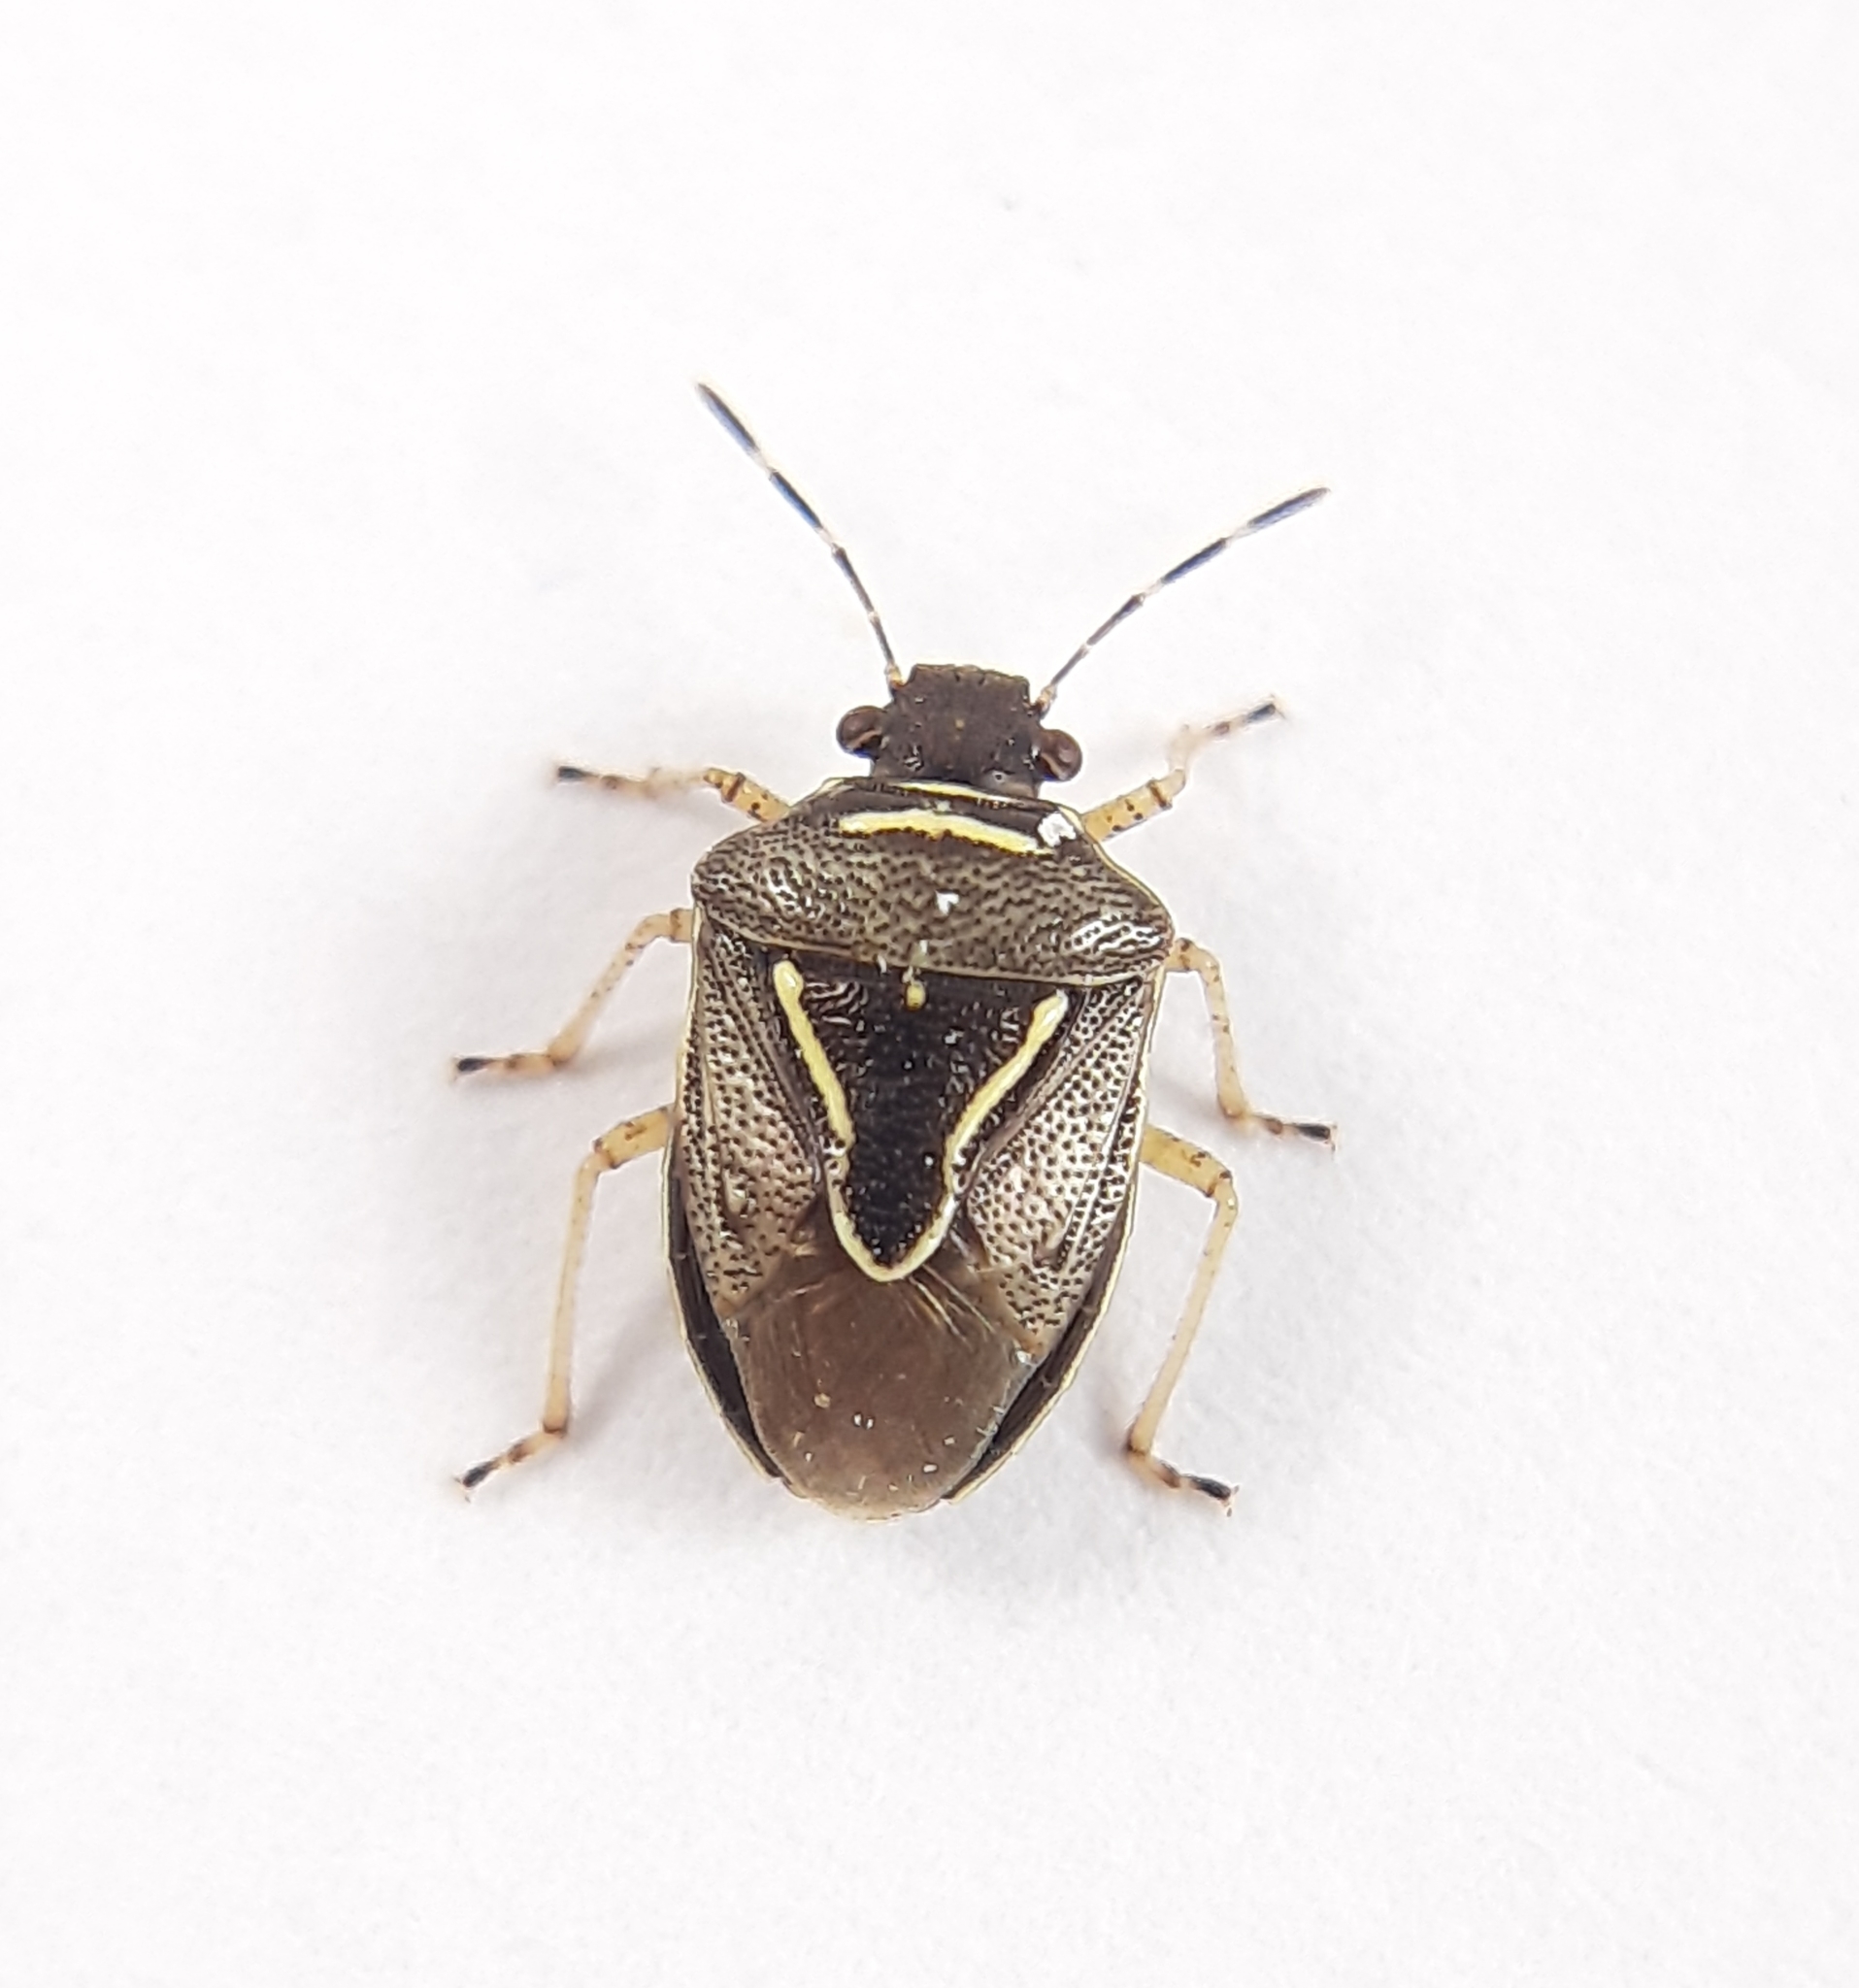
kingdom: Animalia
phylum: Arthropoda
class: Insecta
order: Hemiptera
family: Pentatomidae
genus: Mormidea
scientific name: Mormidea lugens
